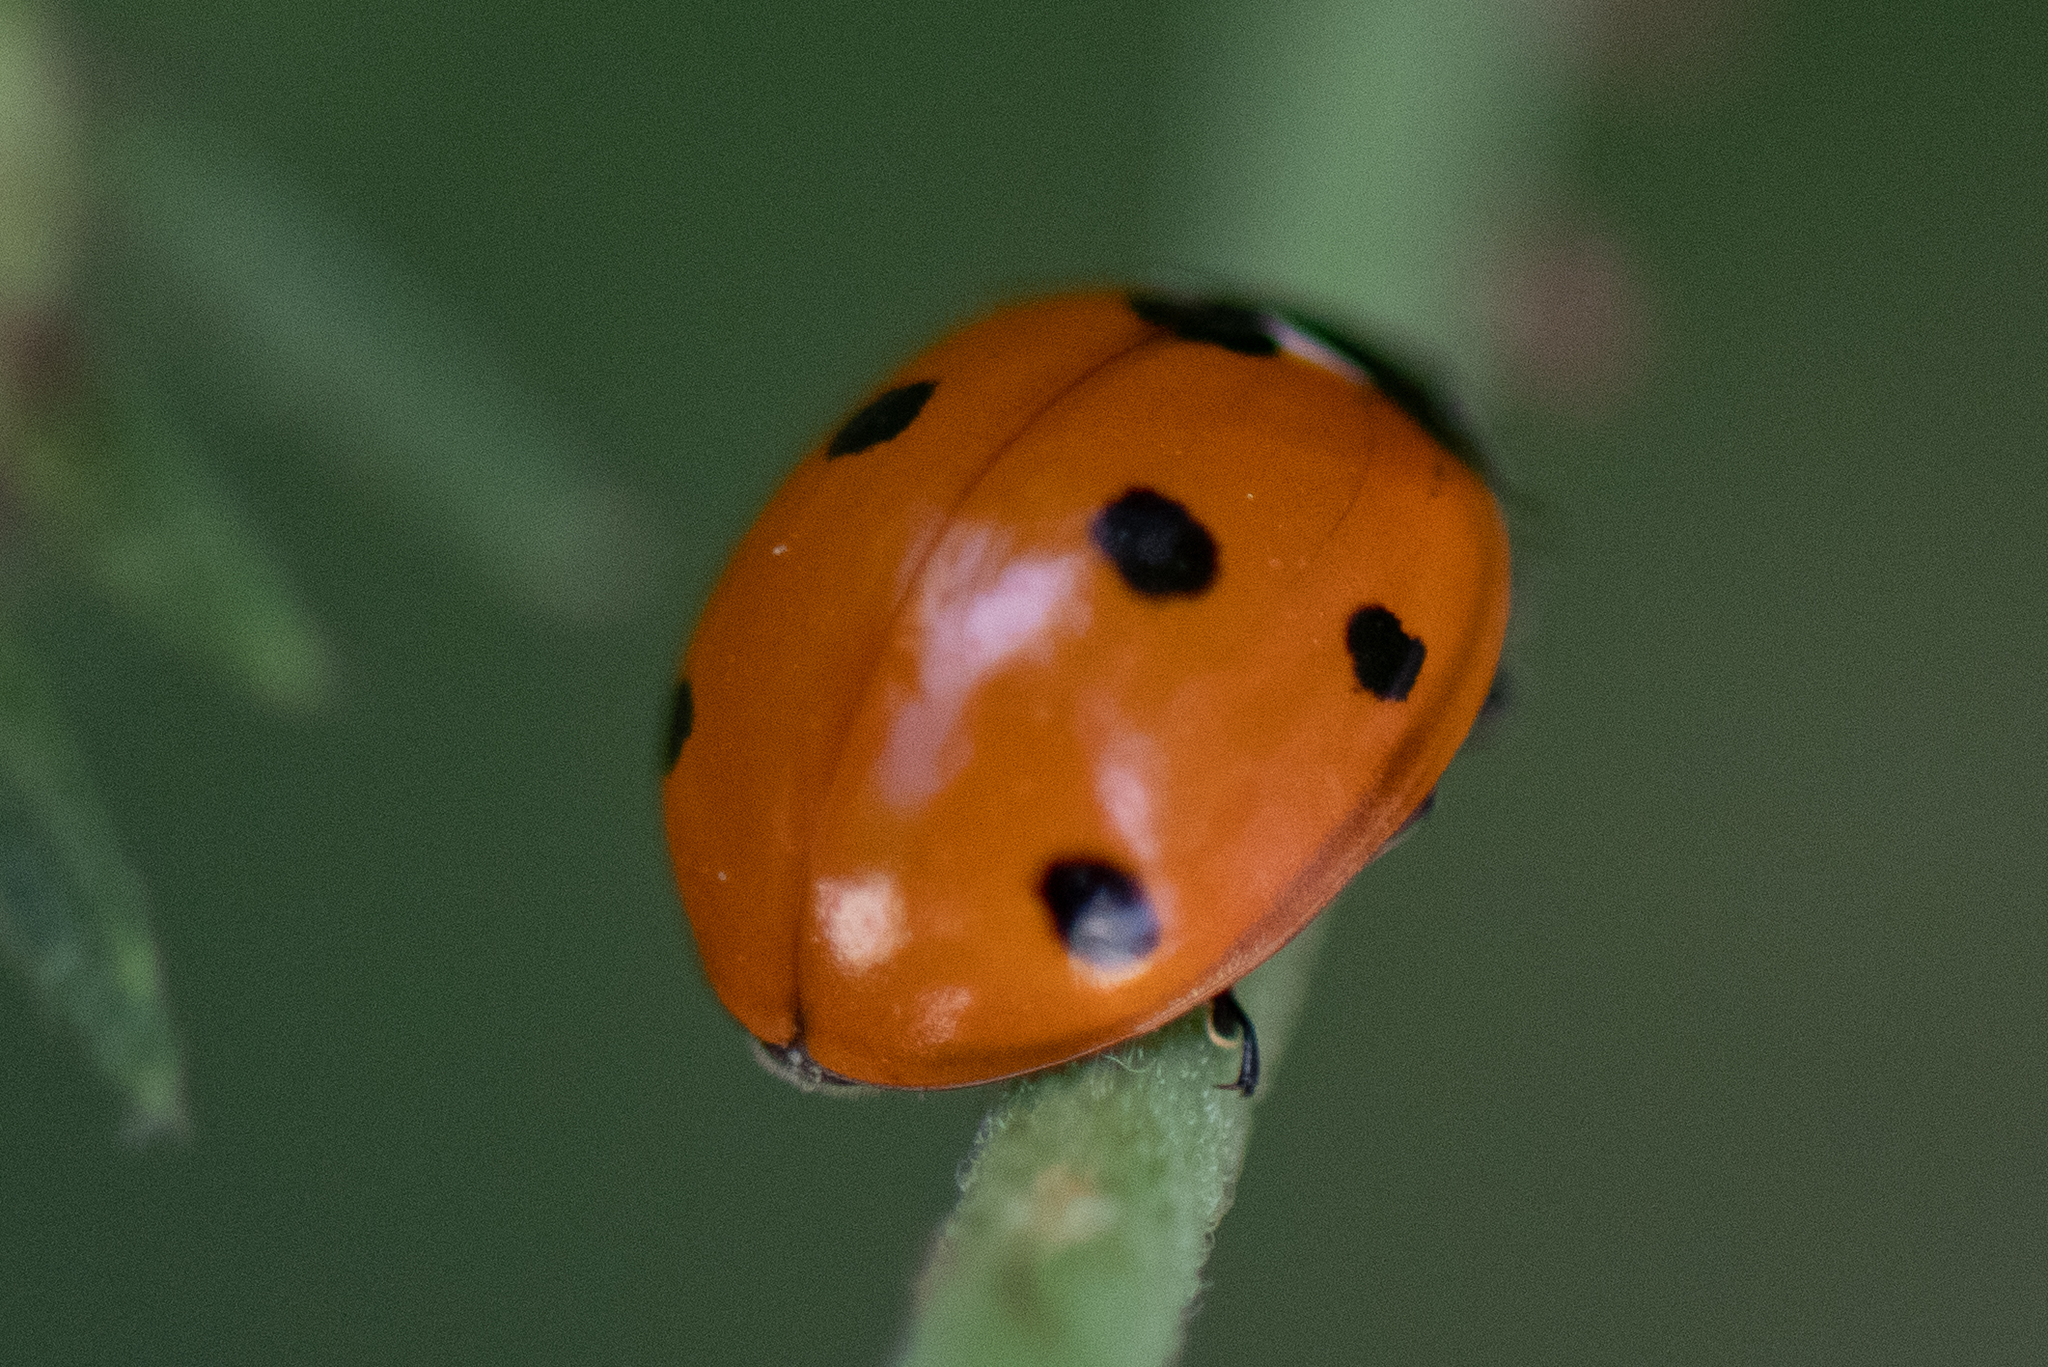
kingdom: Animalia
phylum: Arthropoda
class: Insecta
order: Coleoptera
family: Coccinellidae
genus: Coccinella
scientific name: Coccinella septempunctata
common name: Sevenspotted lady beetle
